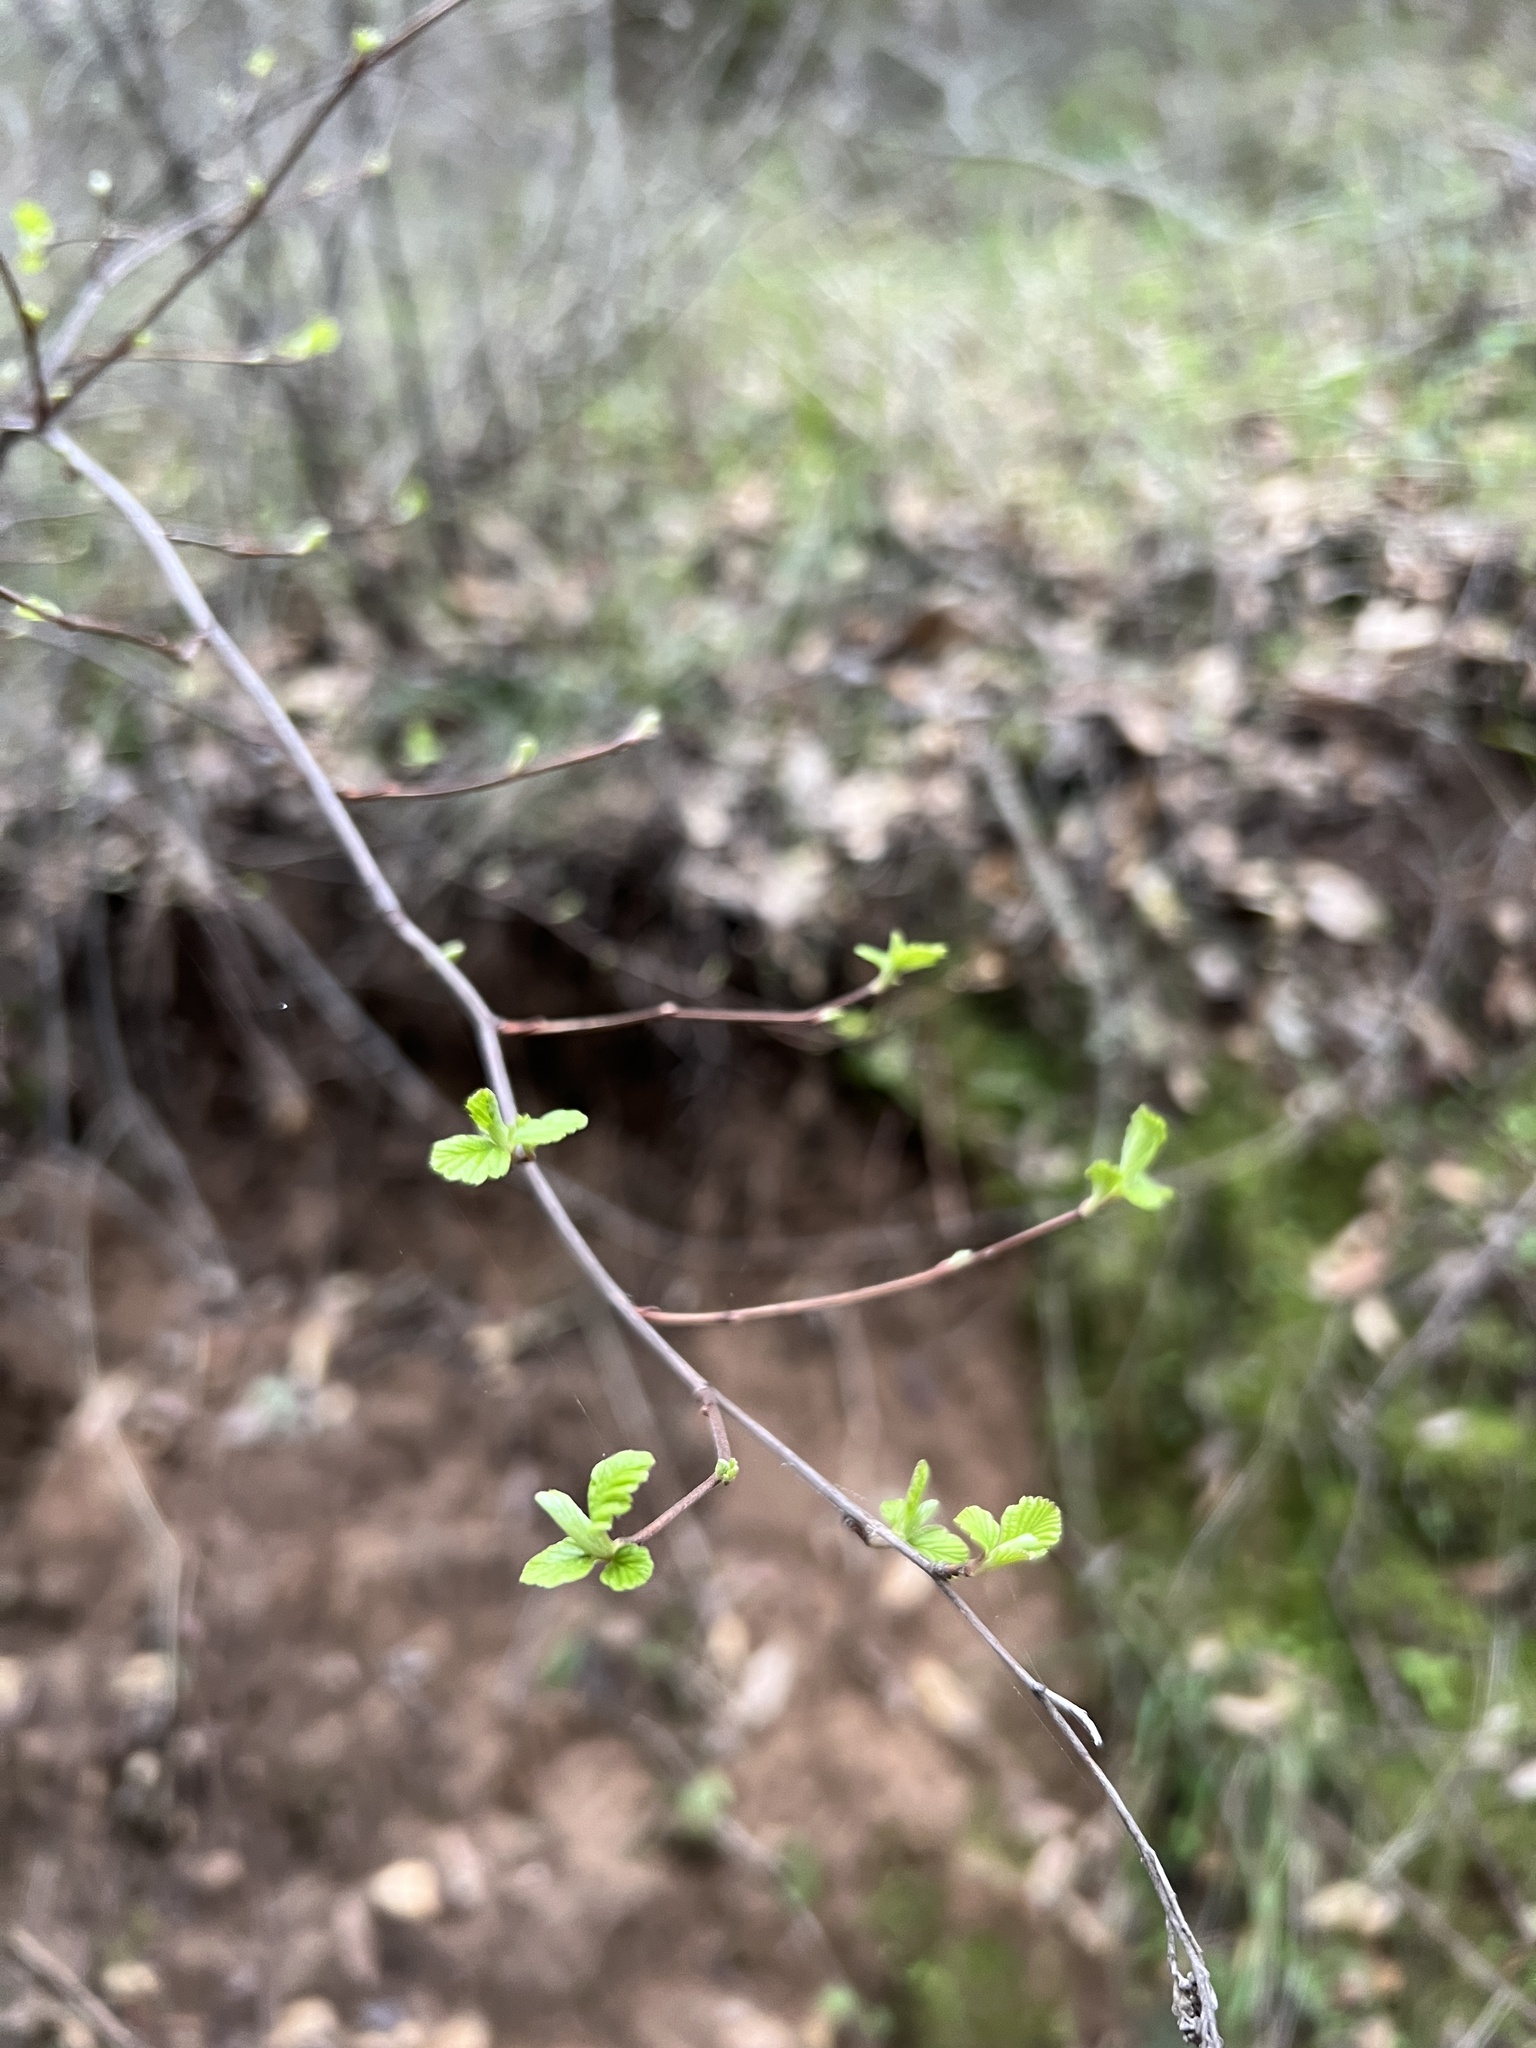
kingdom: Plantae
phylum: Tracheophyta
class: Magnoliopsida
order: Rosales
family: Rosaceae
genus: Holodiscus
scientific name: Holodiscus discolor
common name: Oceanspray
